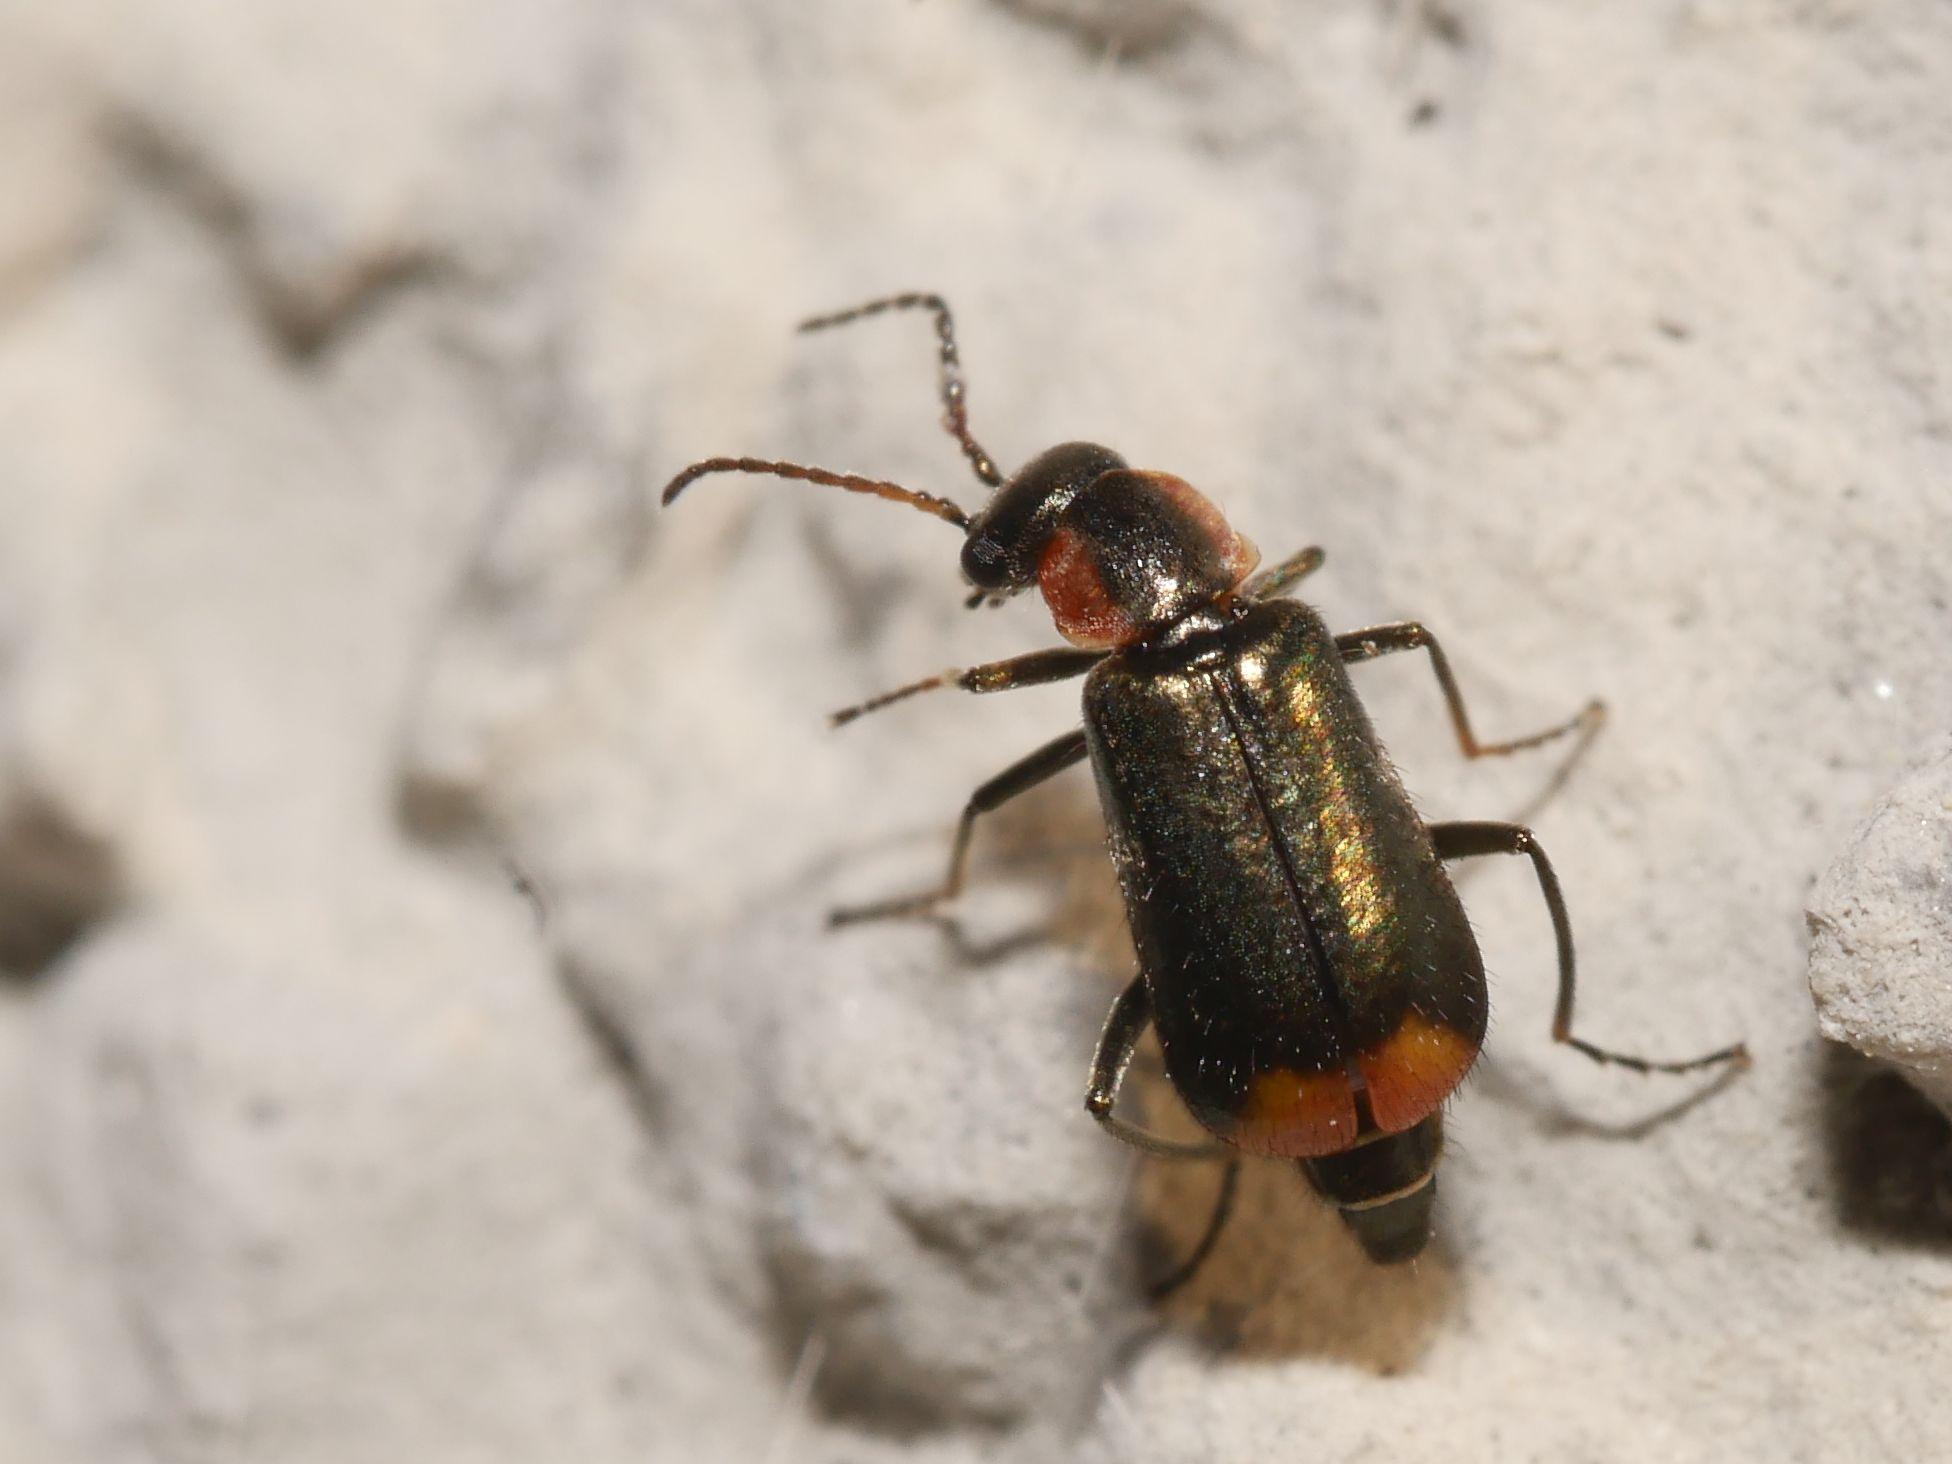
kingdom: Animalia
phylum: Arthropoda
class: Insecta
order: Coleoptera
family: Melyridae
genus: Axinotarsus
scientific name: Axinotarsus pulicarius
